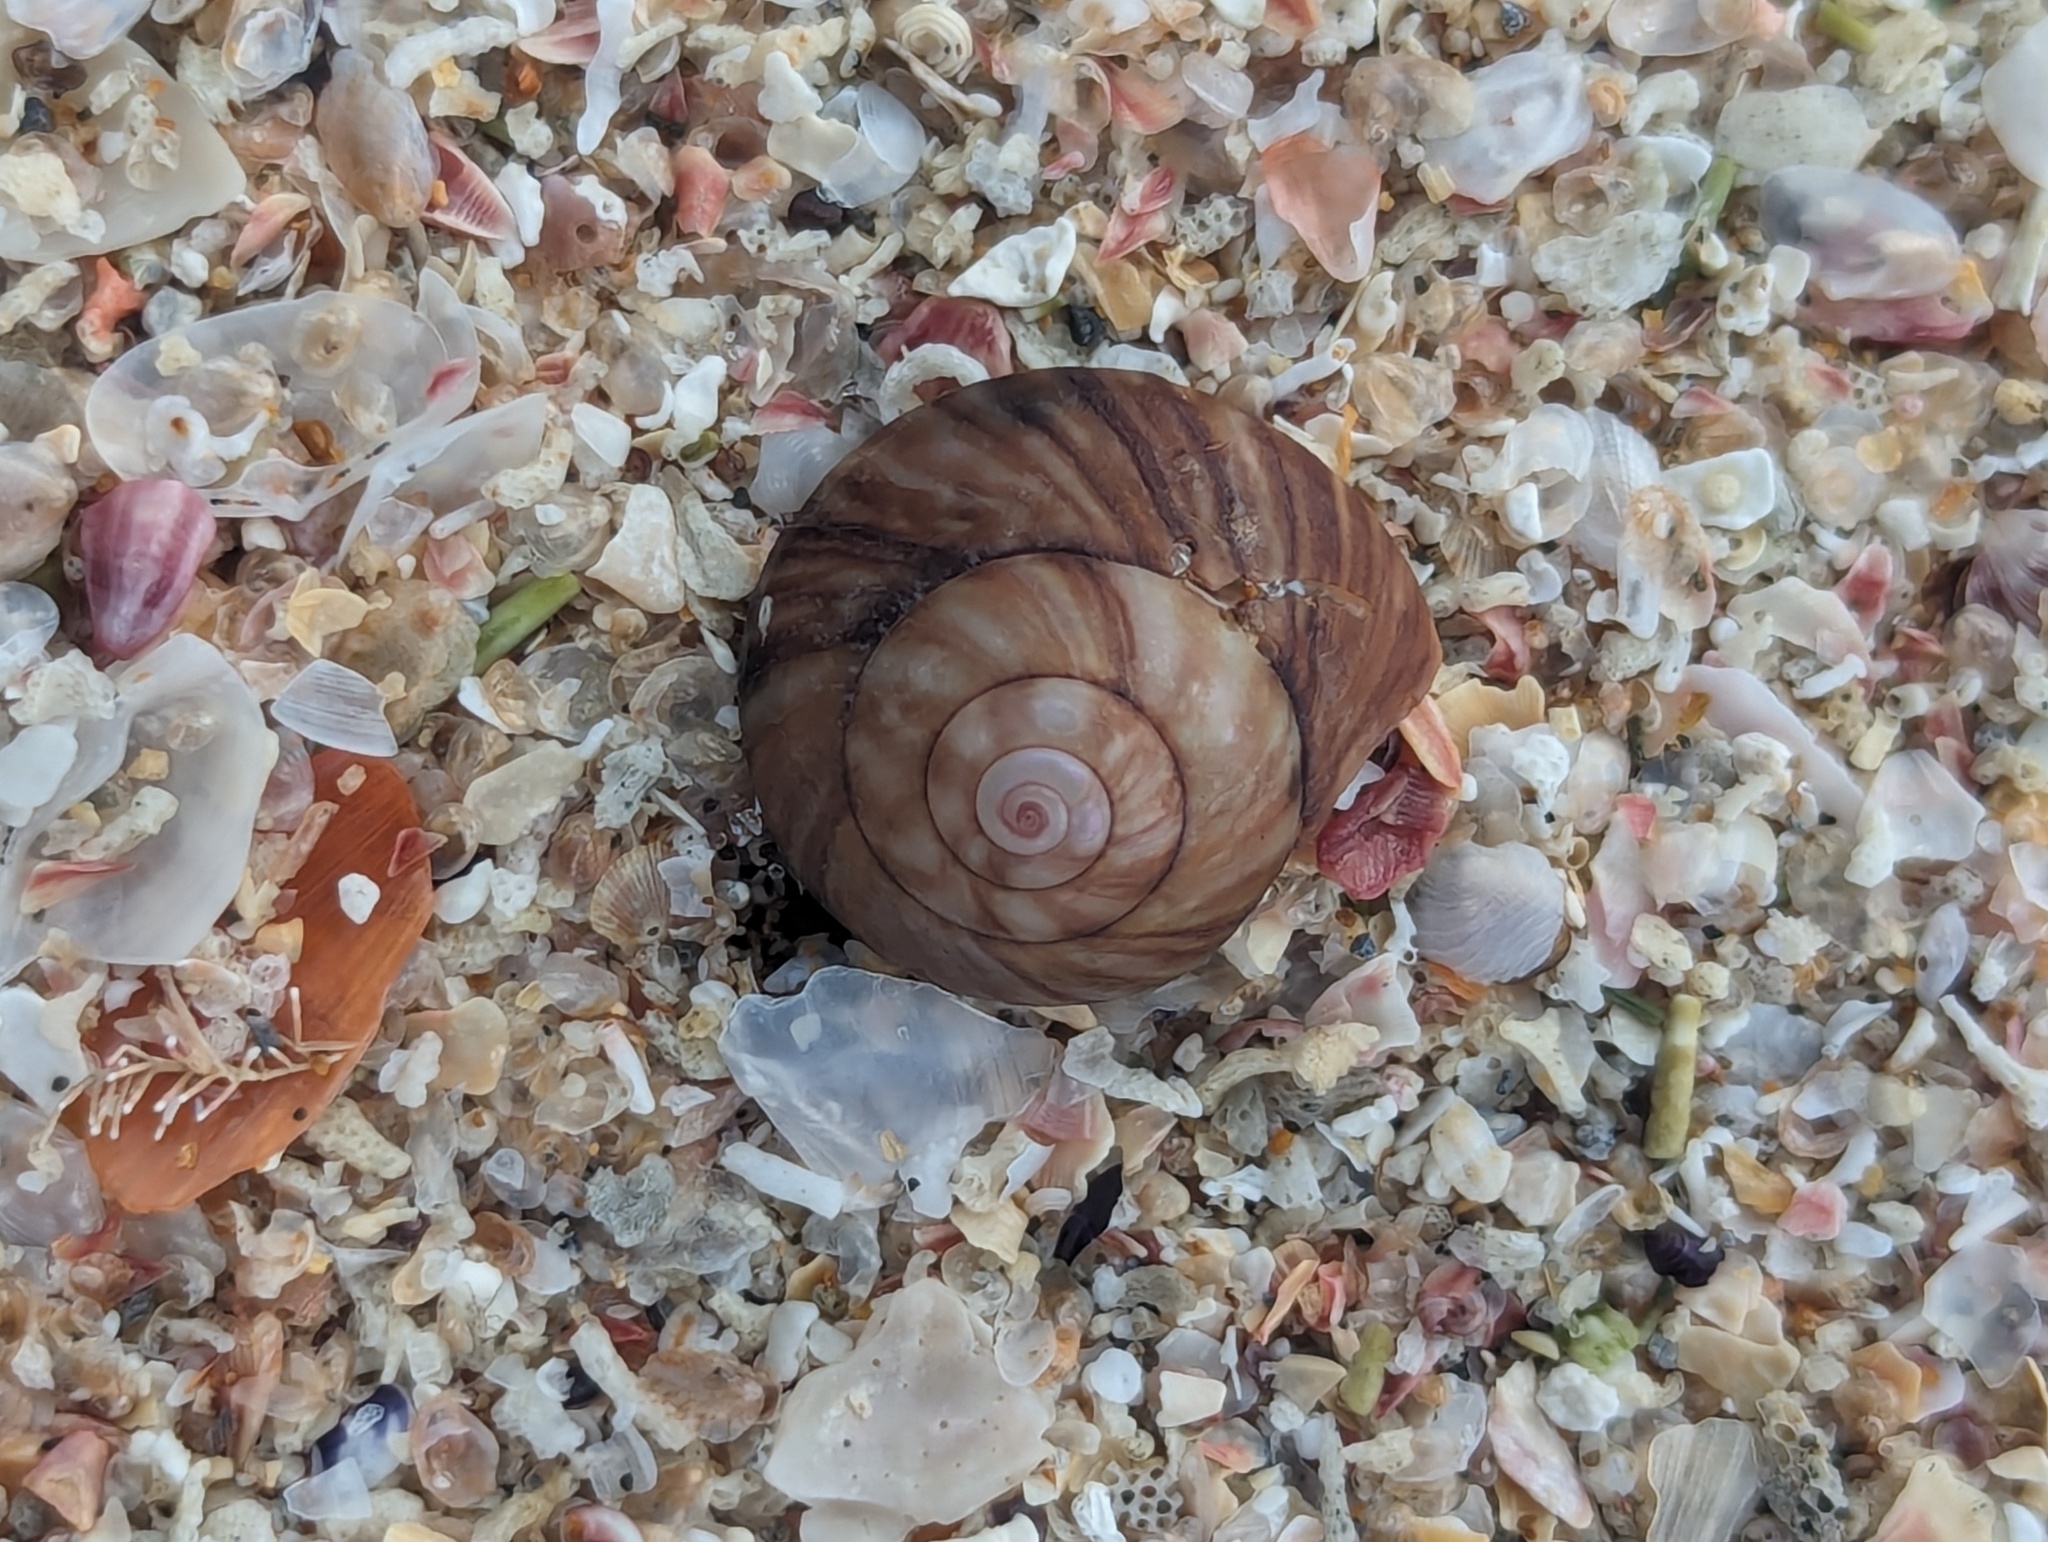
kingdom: Animalia
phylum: Mollusca
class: Gastropoda
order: Trochida
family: Trochidae
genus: Zethalia
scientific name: Zethalia zelandica
